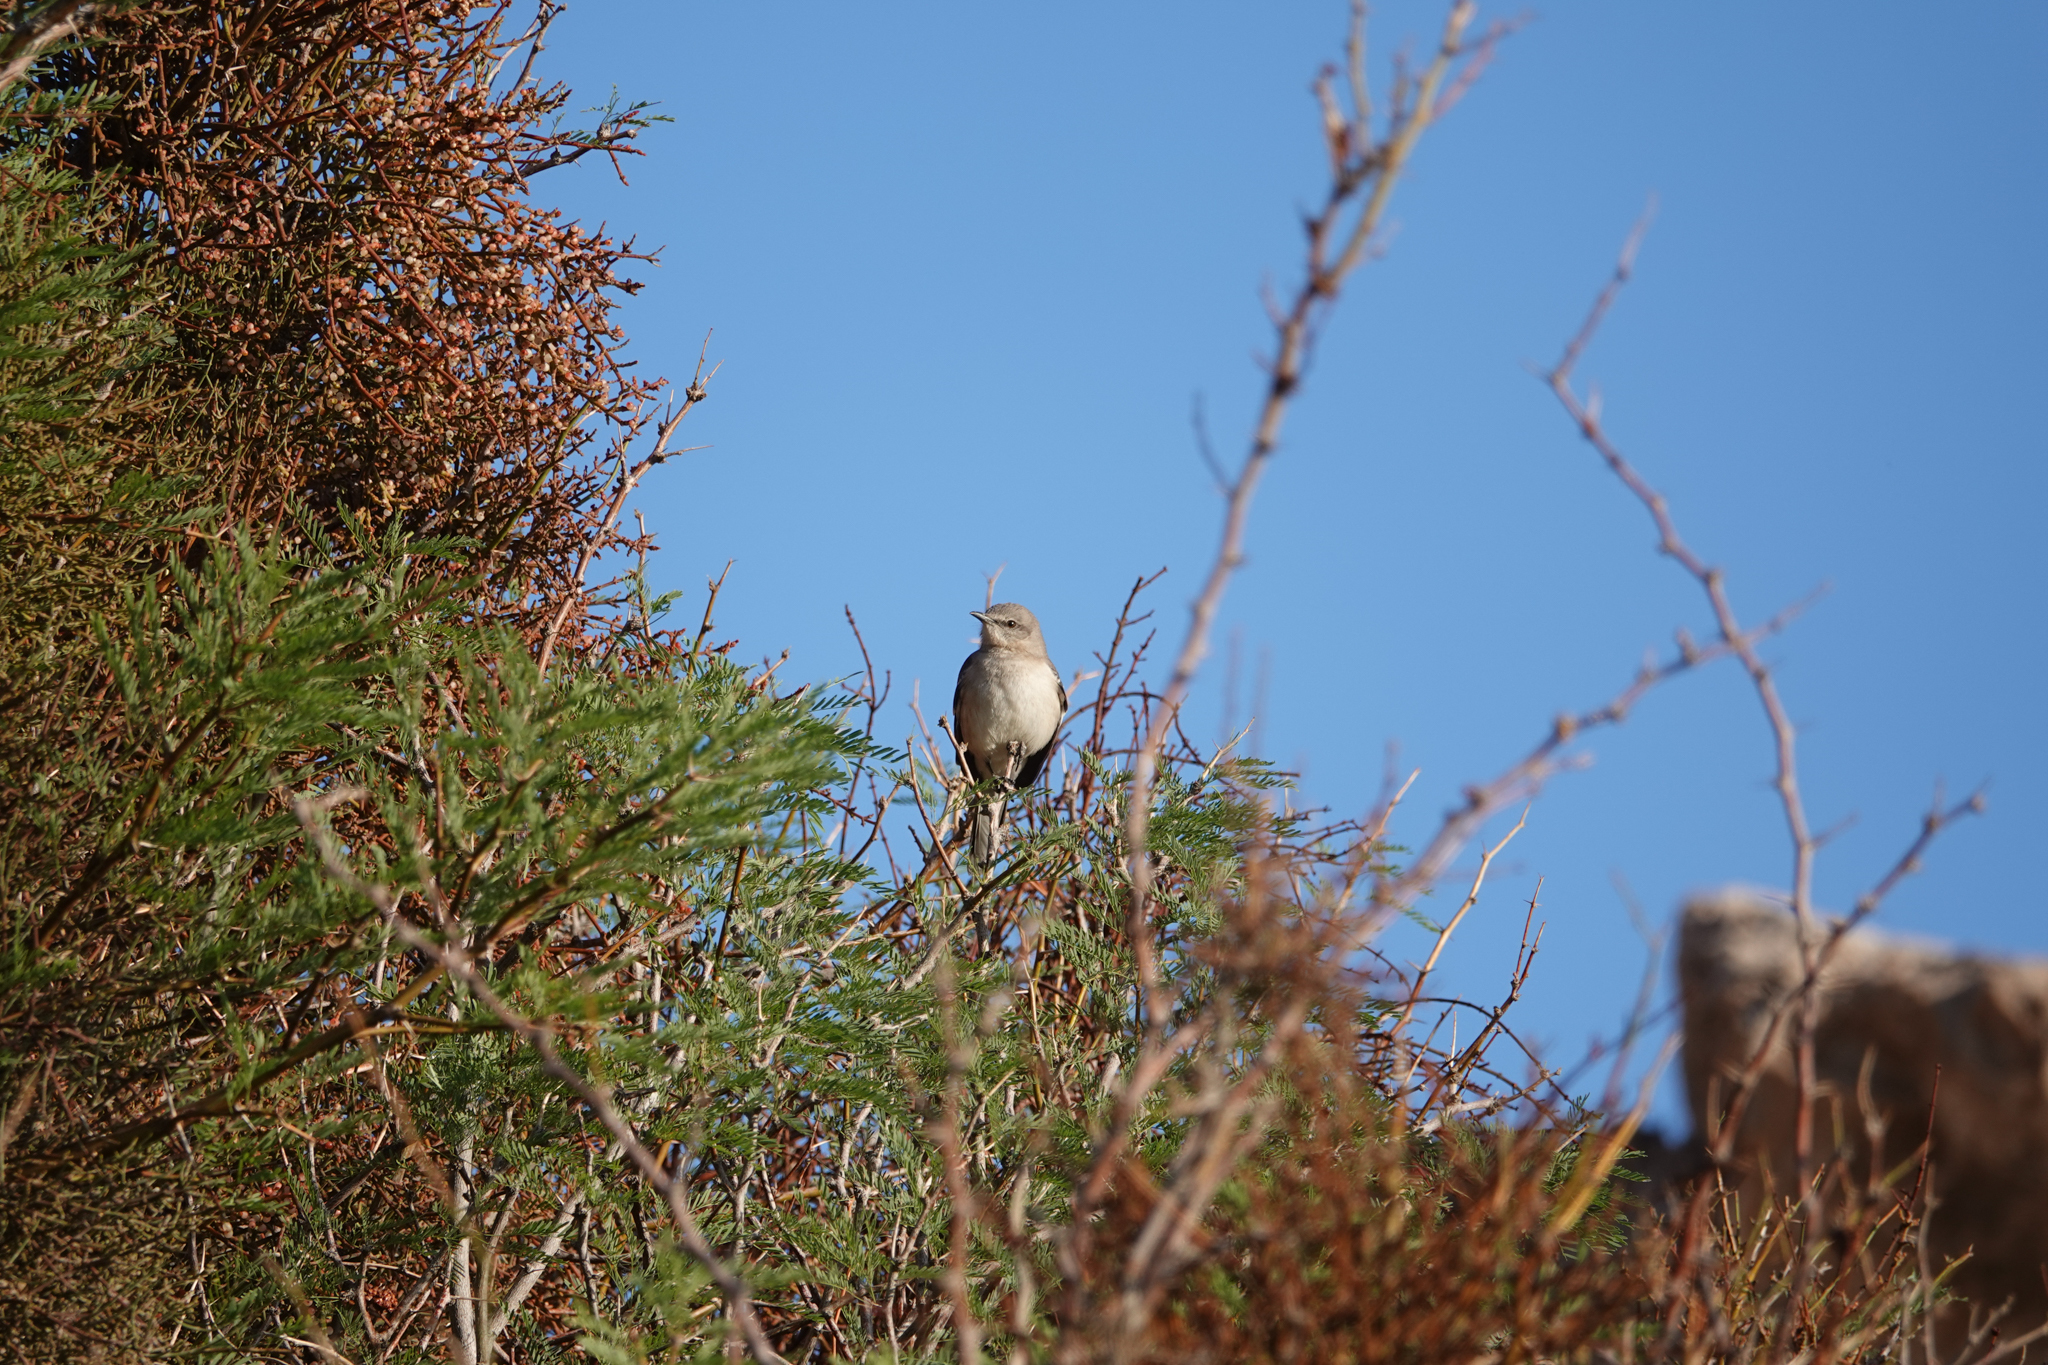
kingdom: Animalia
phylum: Chordata
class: Aves
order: Passeriformes
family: Mimidae
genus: Mimus
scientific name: Mimus polyglottos
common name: Northern mockingbird
